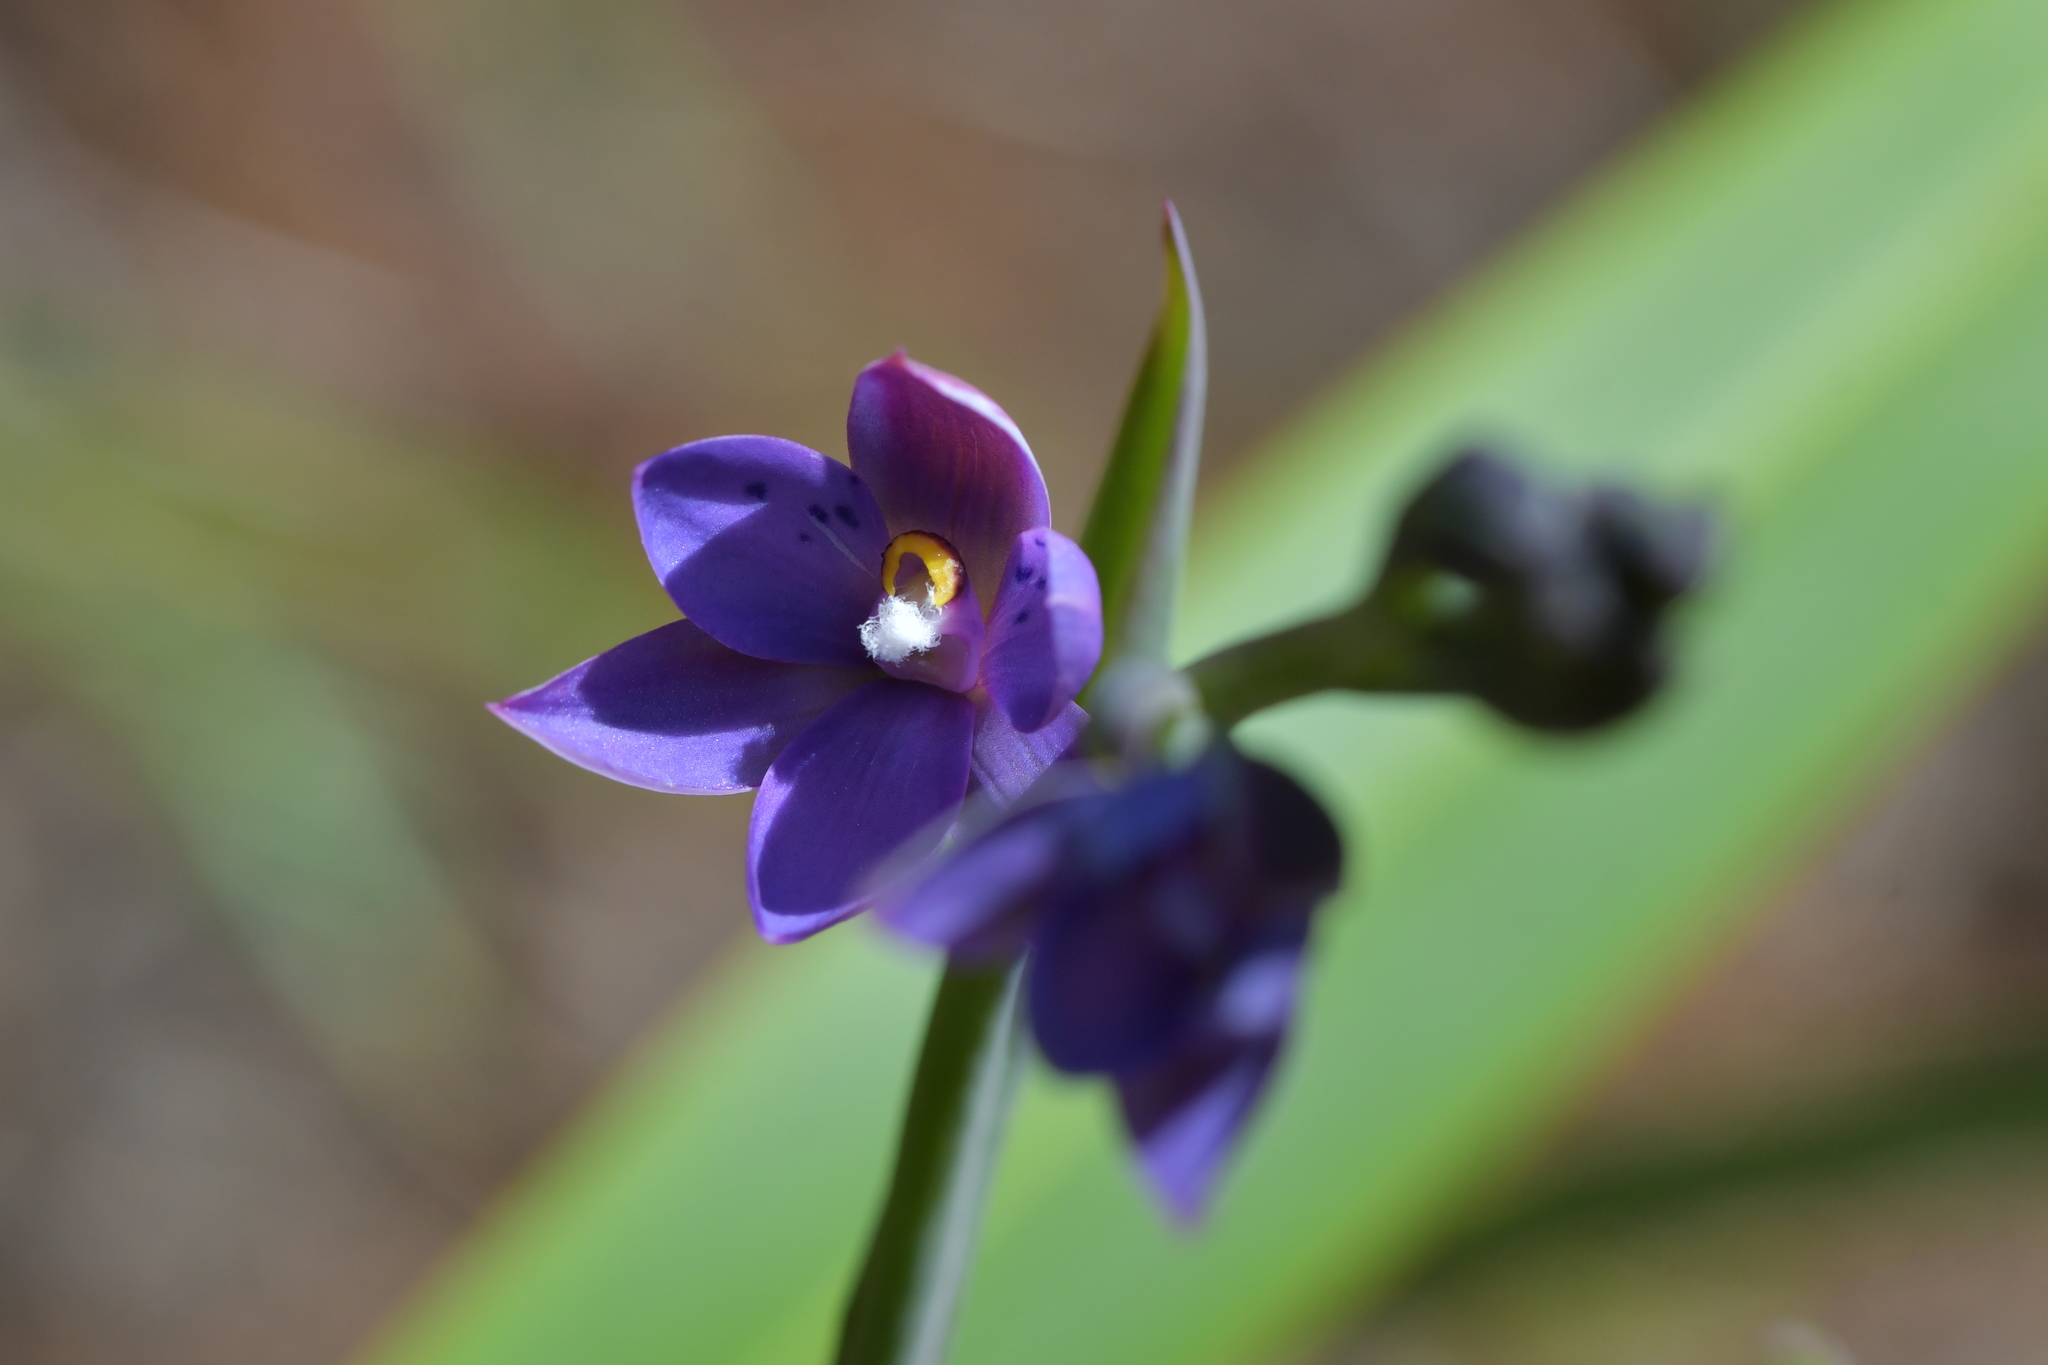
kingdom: Plantae
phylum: Tracheophyta
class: Liliopsida
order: Asparagales
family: Orchidaceae
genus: Thelymitra
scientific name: Thelymitra nervosa
